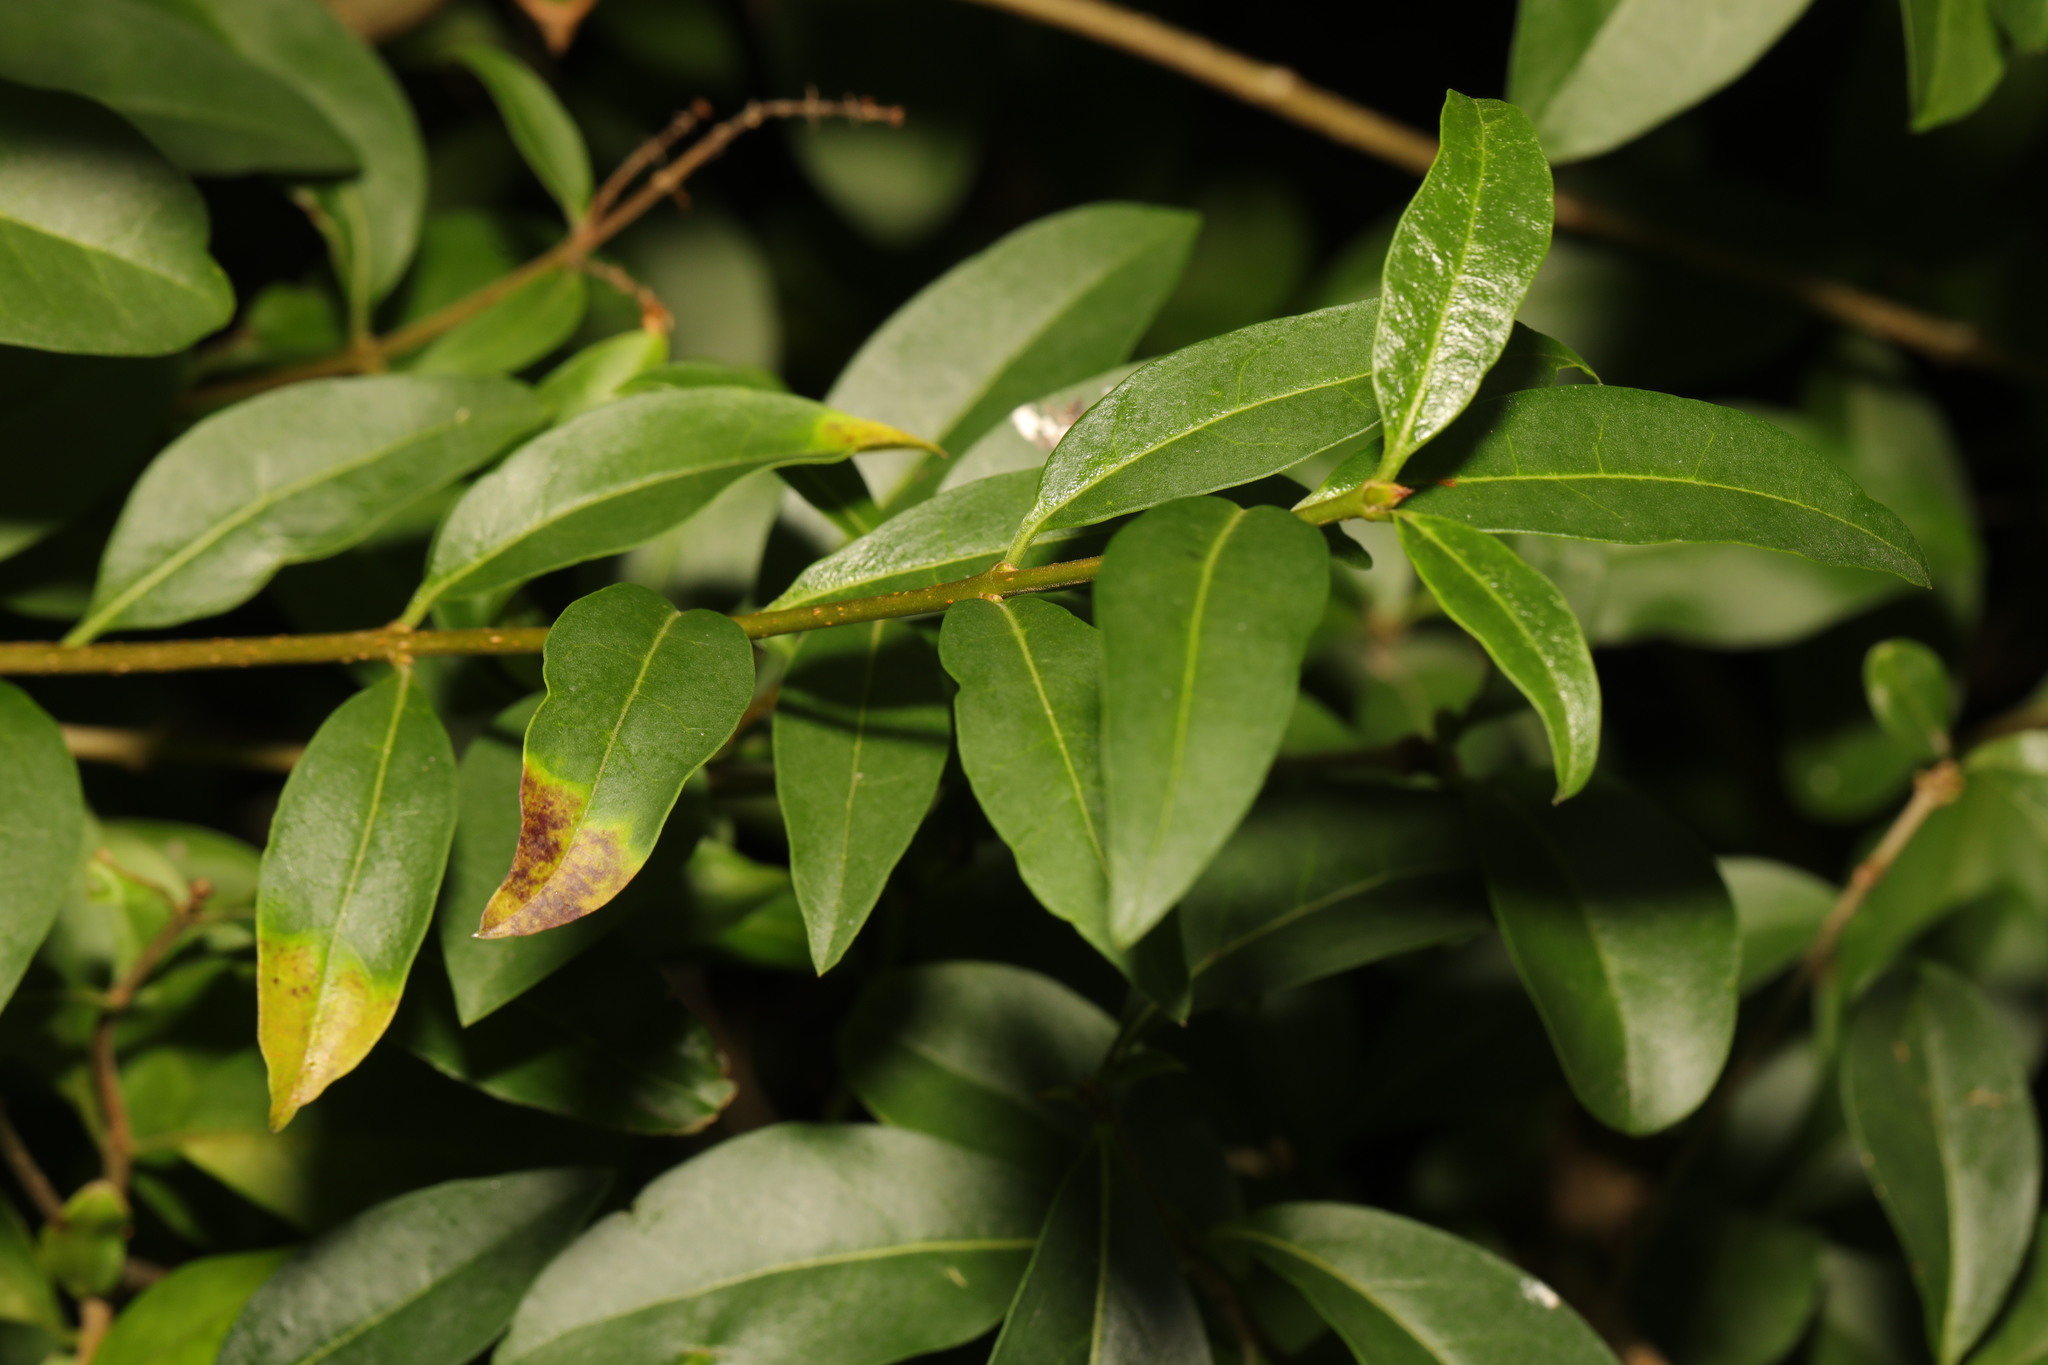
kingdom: Plantae
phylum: Tracheophyta
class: Magnoliopsida
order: Lamiales
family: Oleaceae
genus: Ligustrum
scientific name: Ligustrum vulgare
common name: Wild privet
